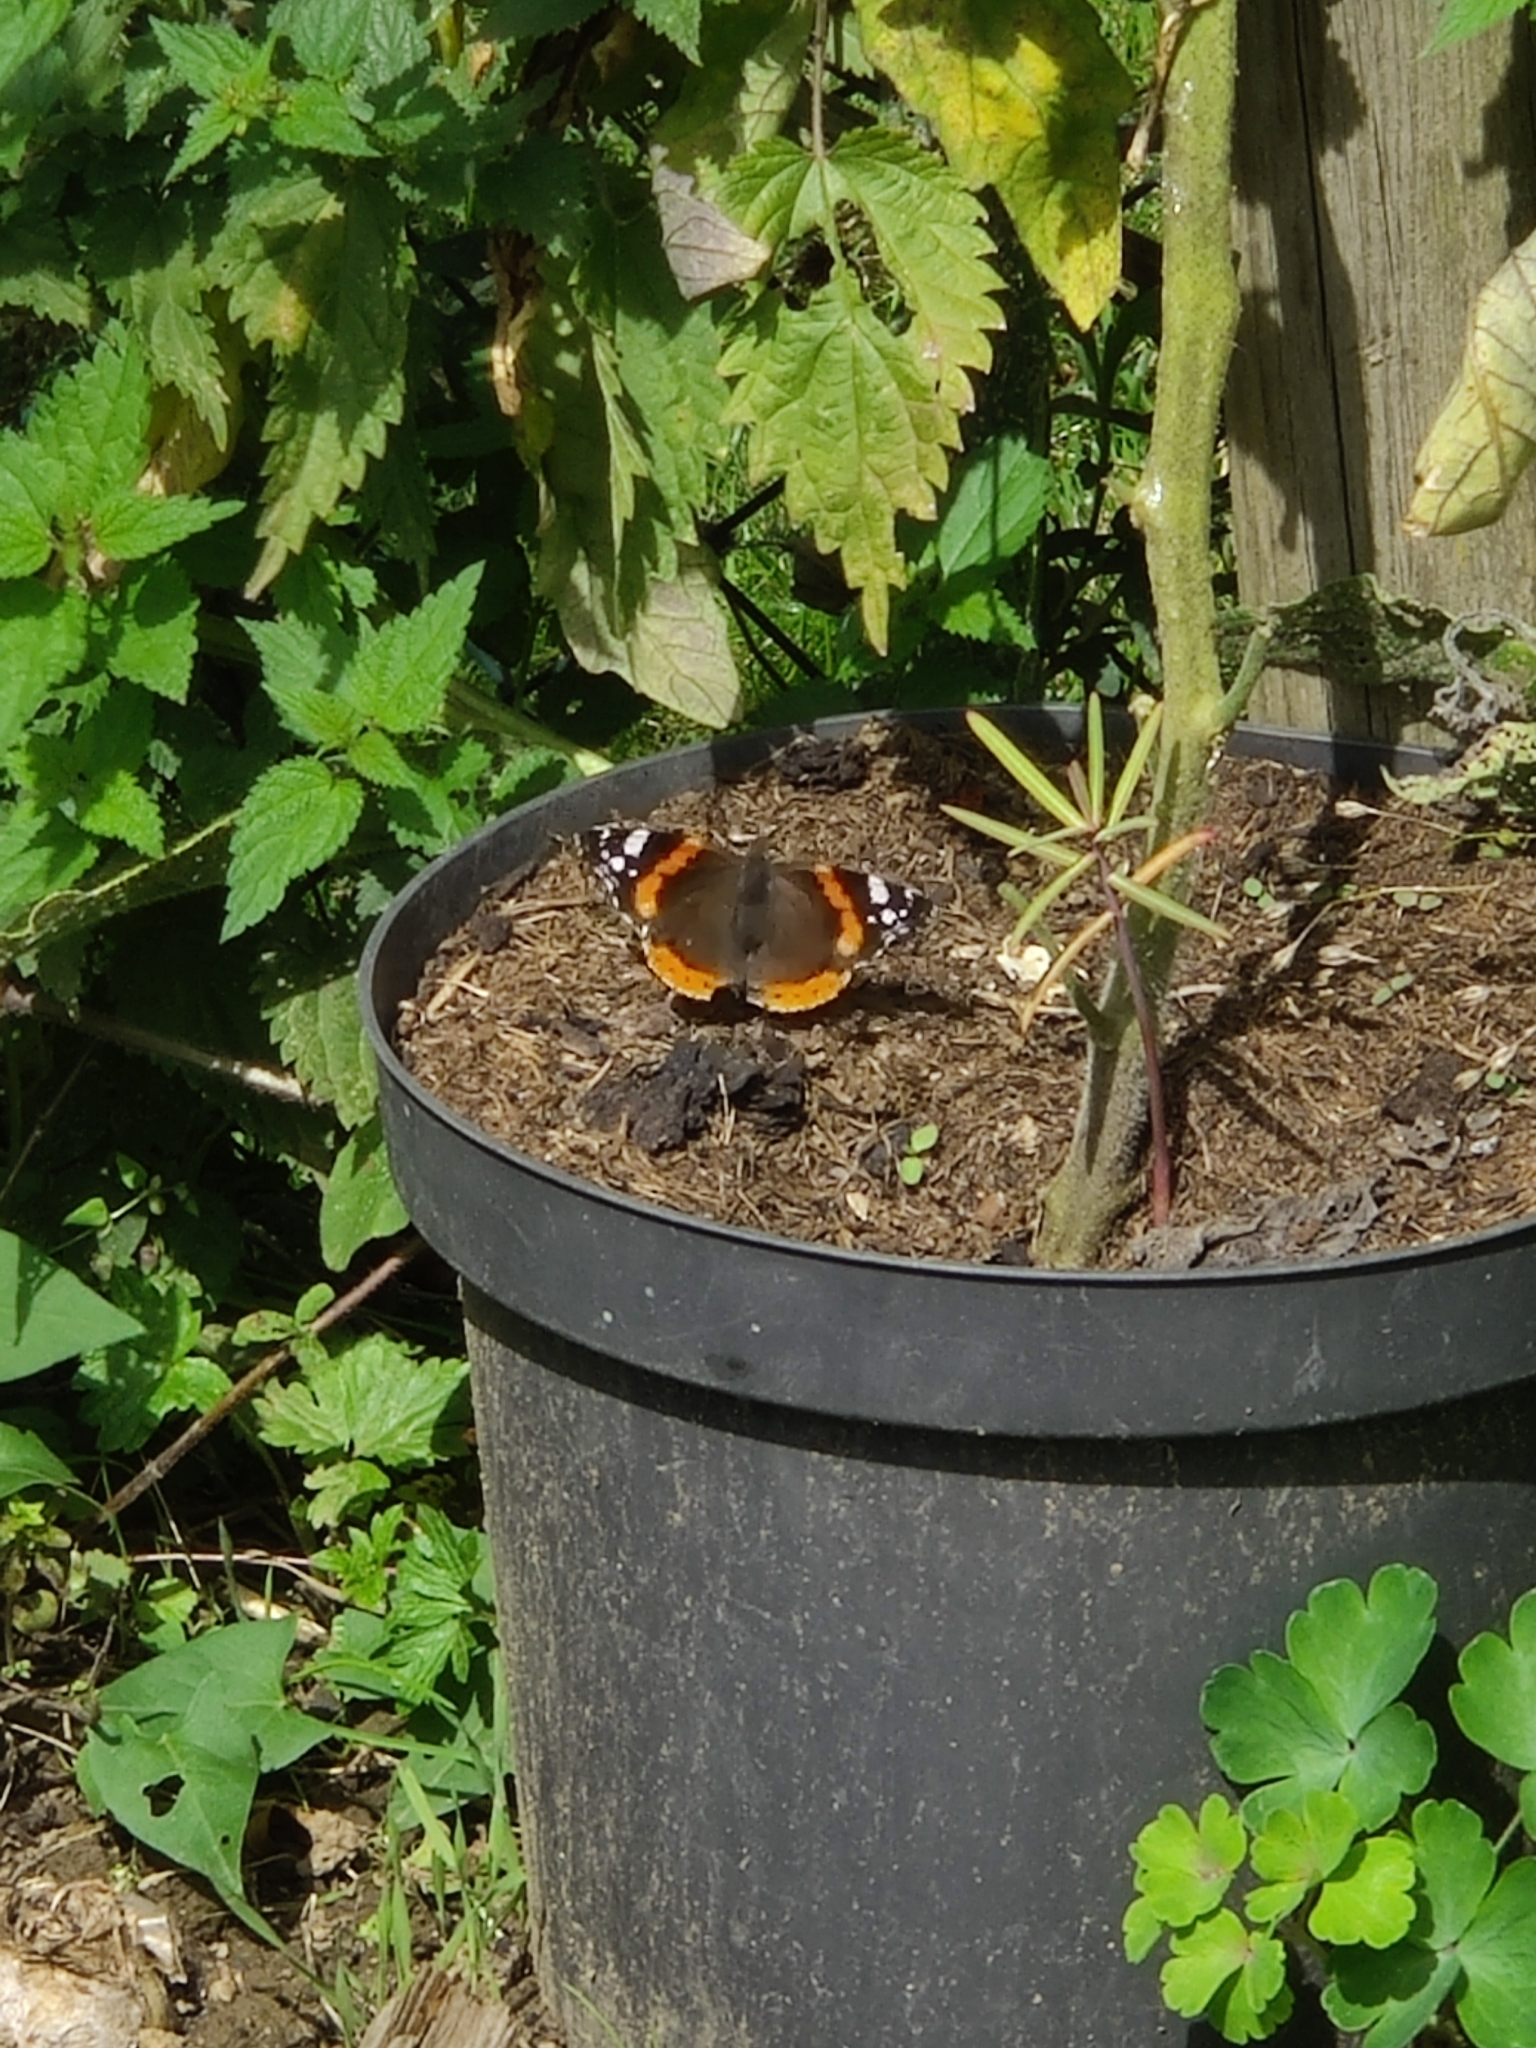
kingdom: Animalia
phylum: Arthropoda
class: Insecta
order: Lepidoptera
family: Nymphalidae
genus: Vanessa
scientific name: Vanessa atalanta
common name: Red admiral
